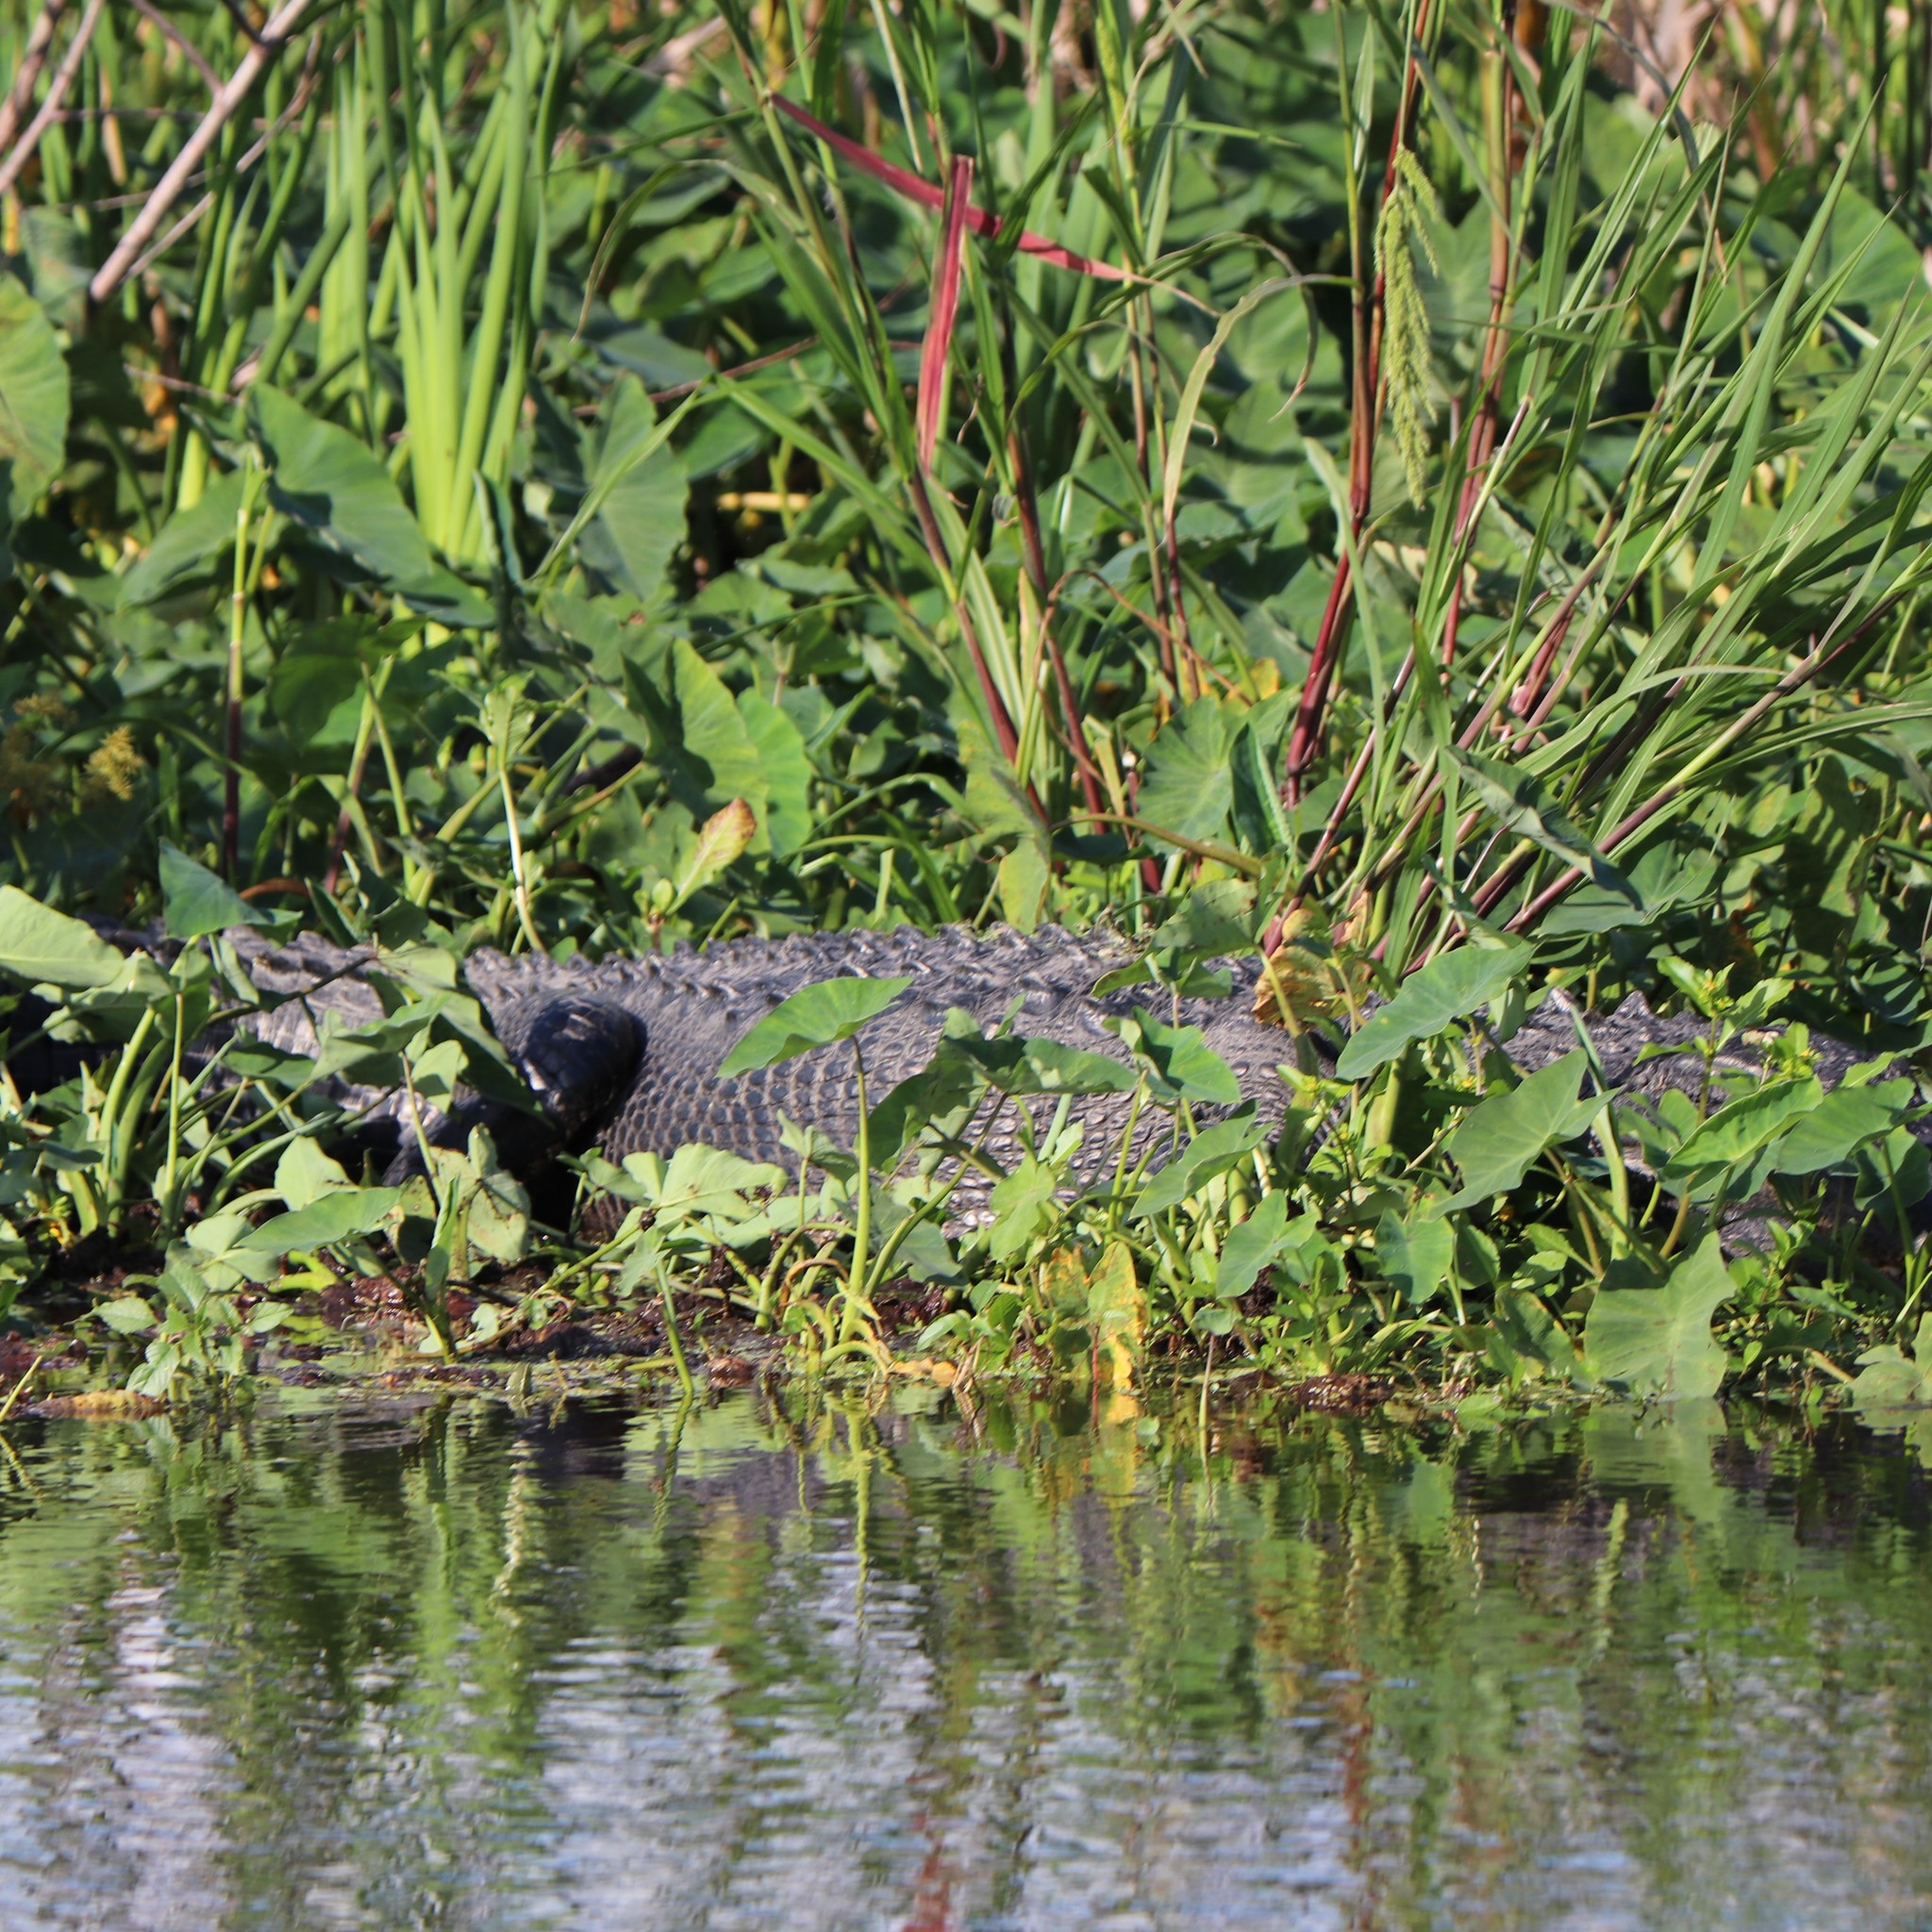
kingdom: Animalia
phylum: Chordata
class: Crocodylia
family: Alligatoridae
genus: Alligator
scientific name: Alligator mississippiensis
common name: American alligator
